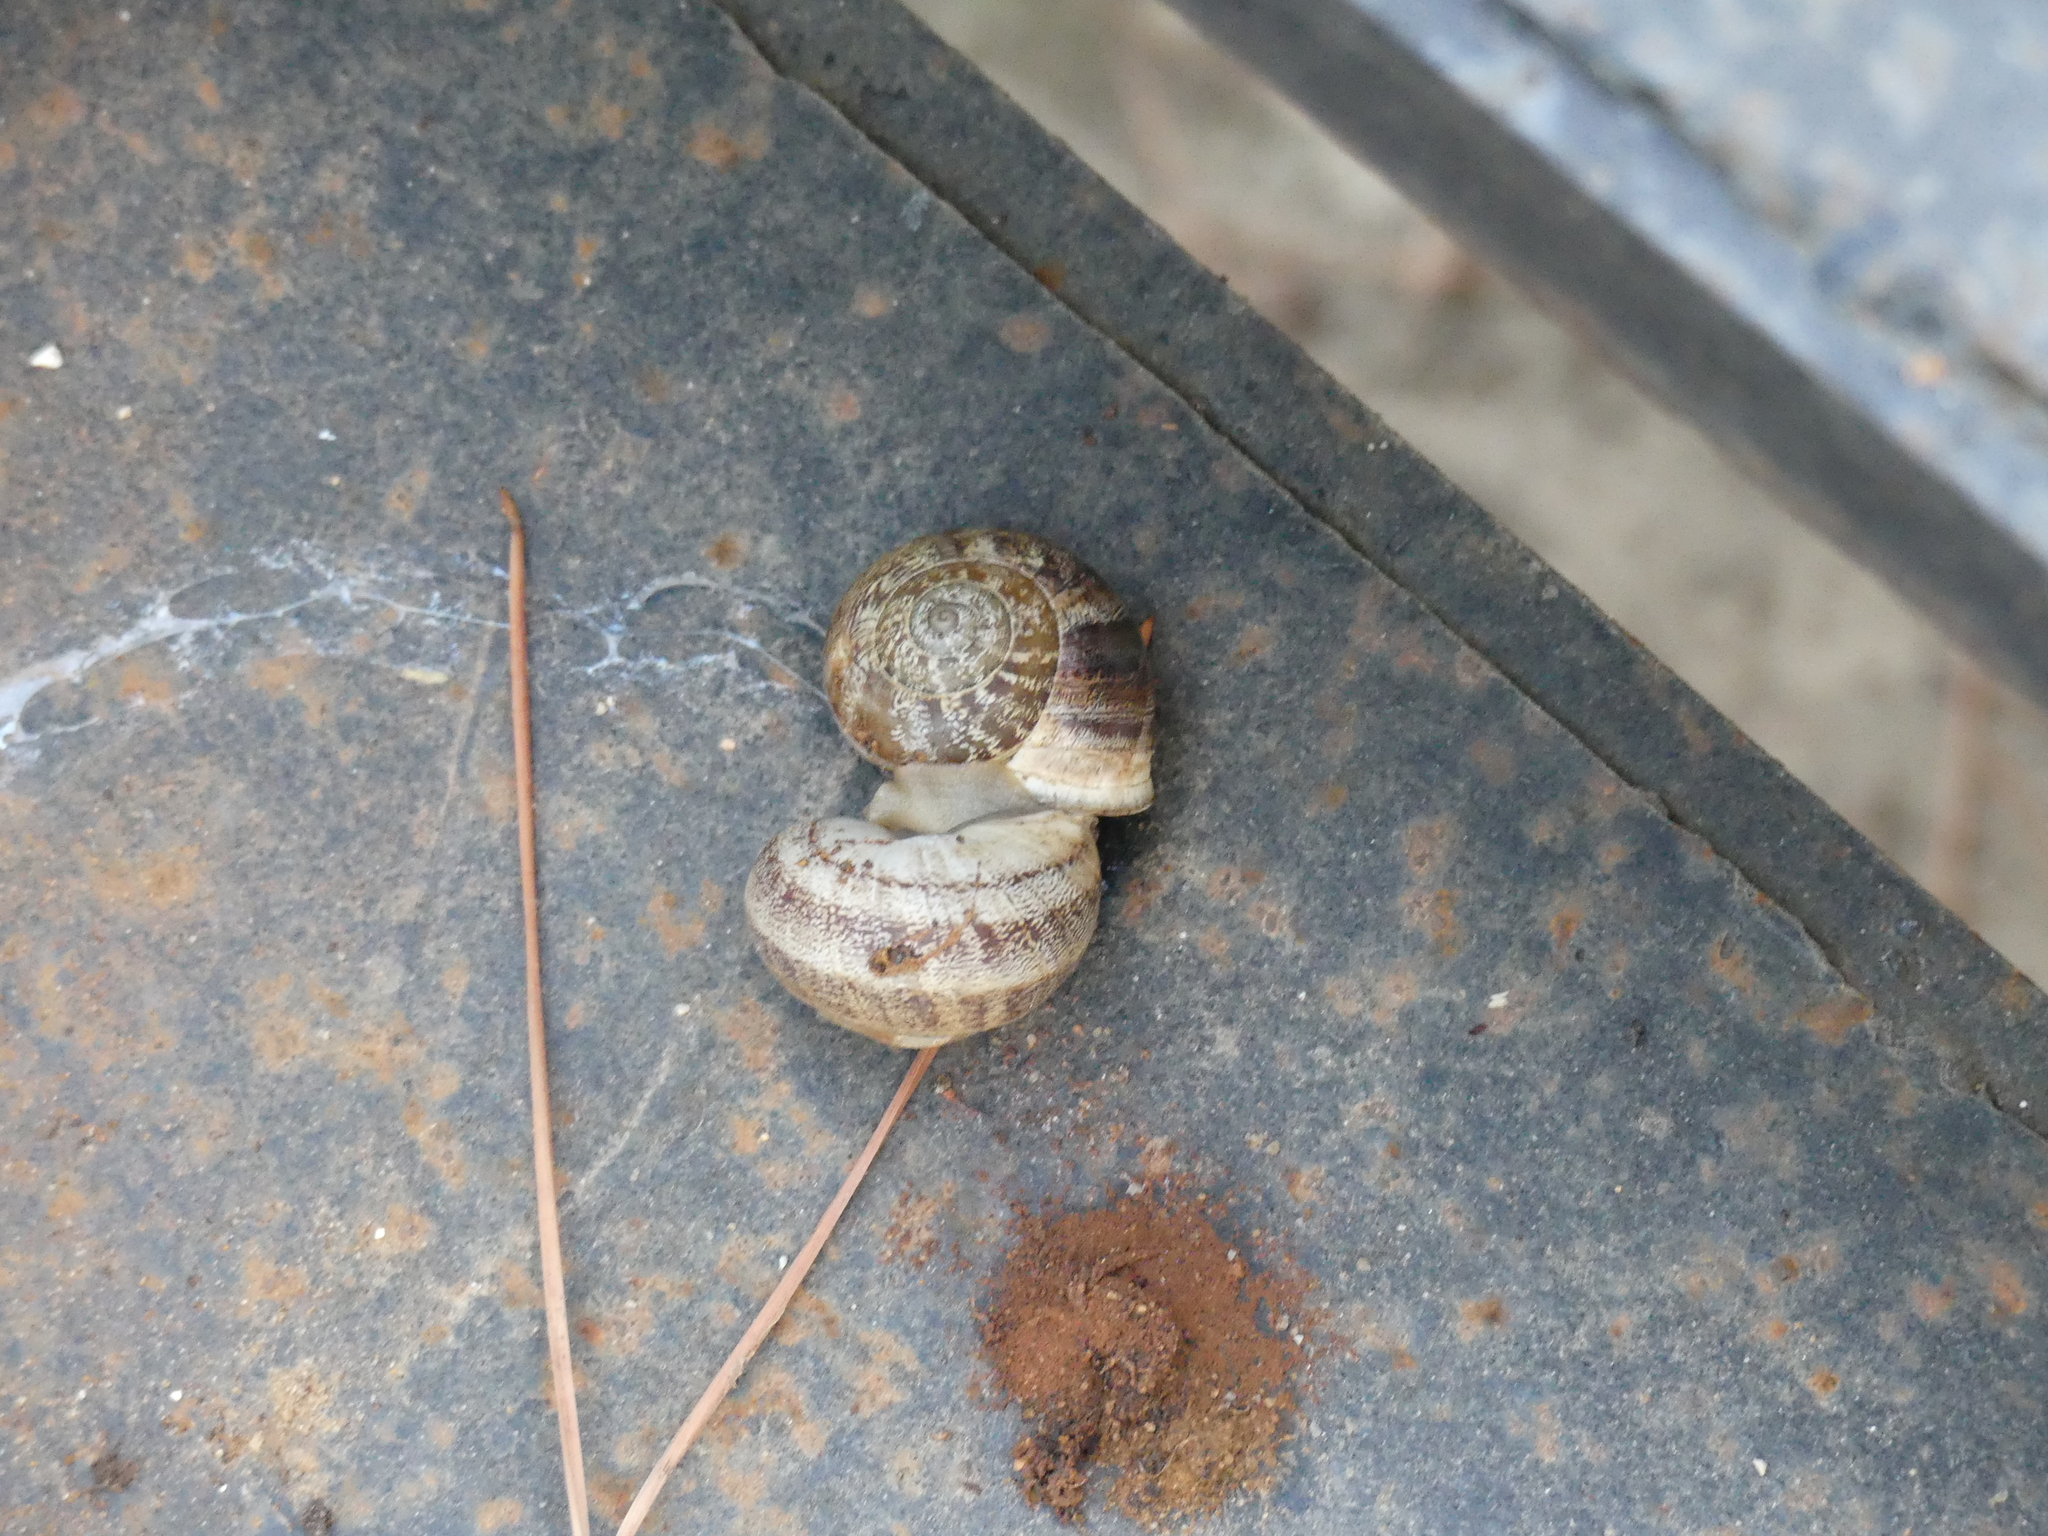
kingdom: Animalia
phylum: Mollusca
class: Gastropoda
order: Stylommatophora
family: Helicidae
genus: Eobania
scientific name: Eobania vermiculata
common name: Chocolateband snail
